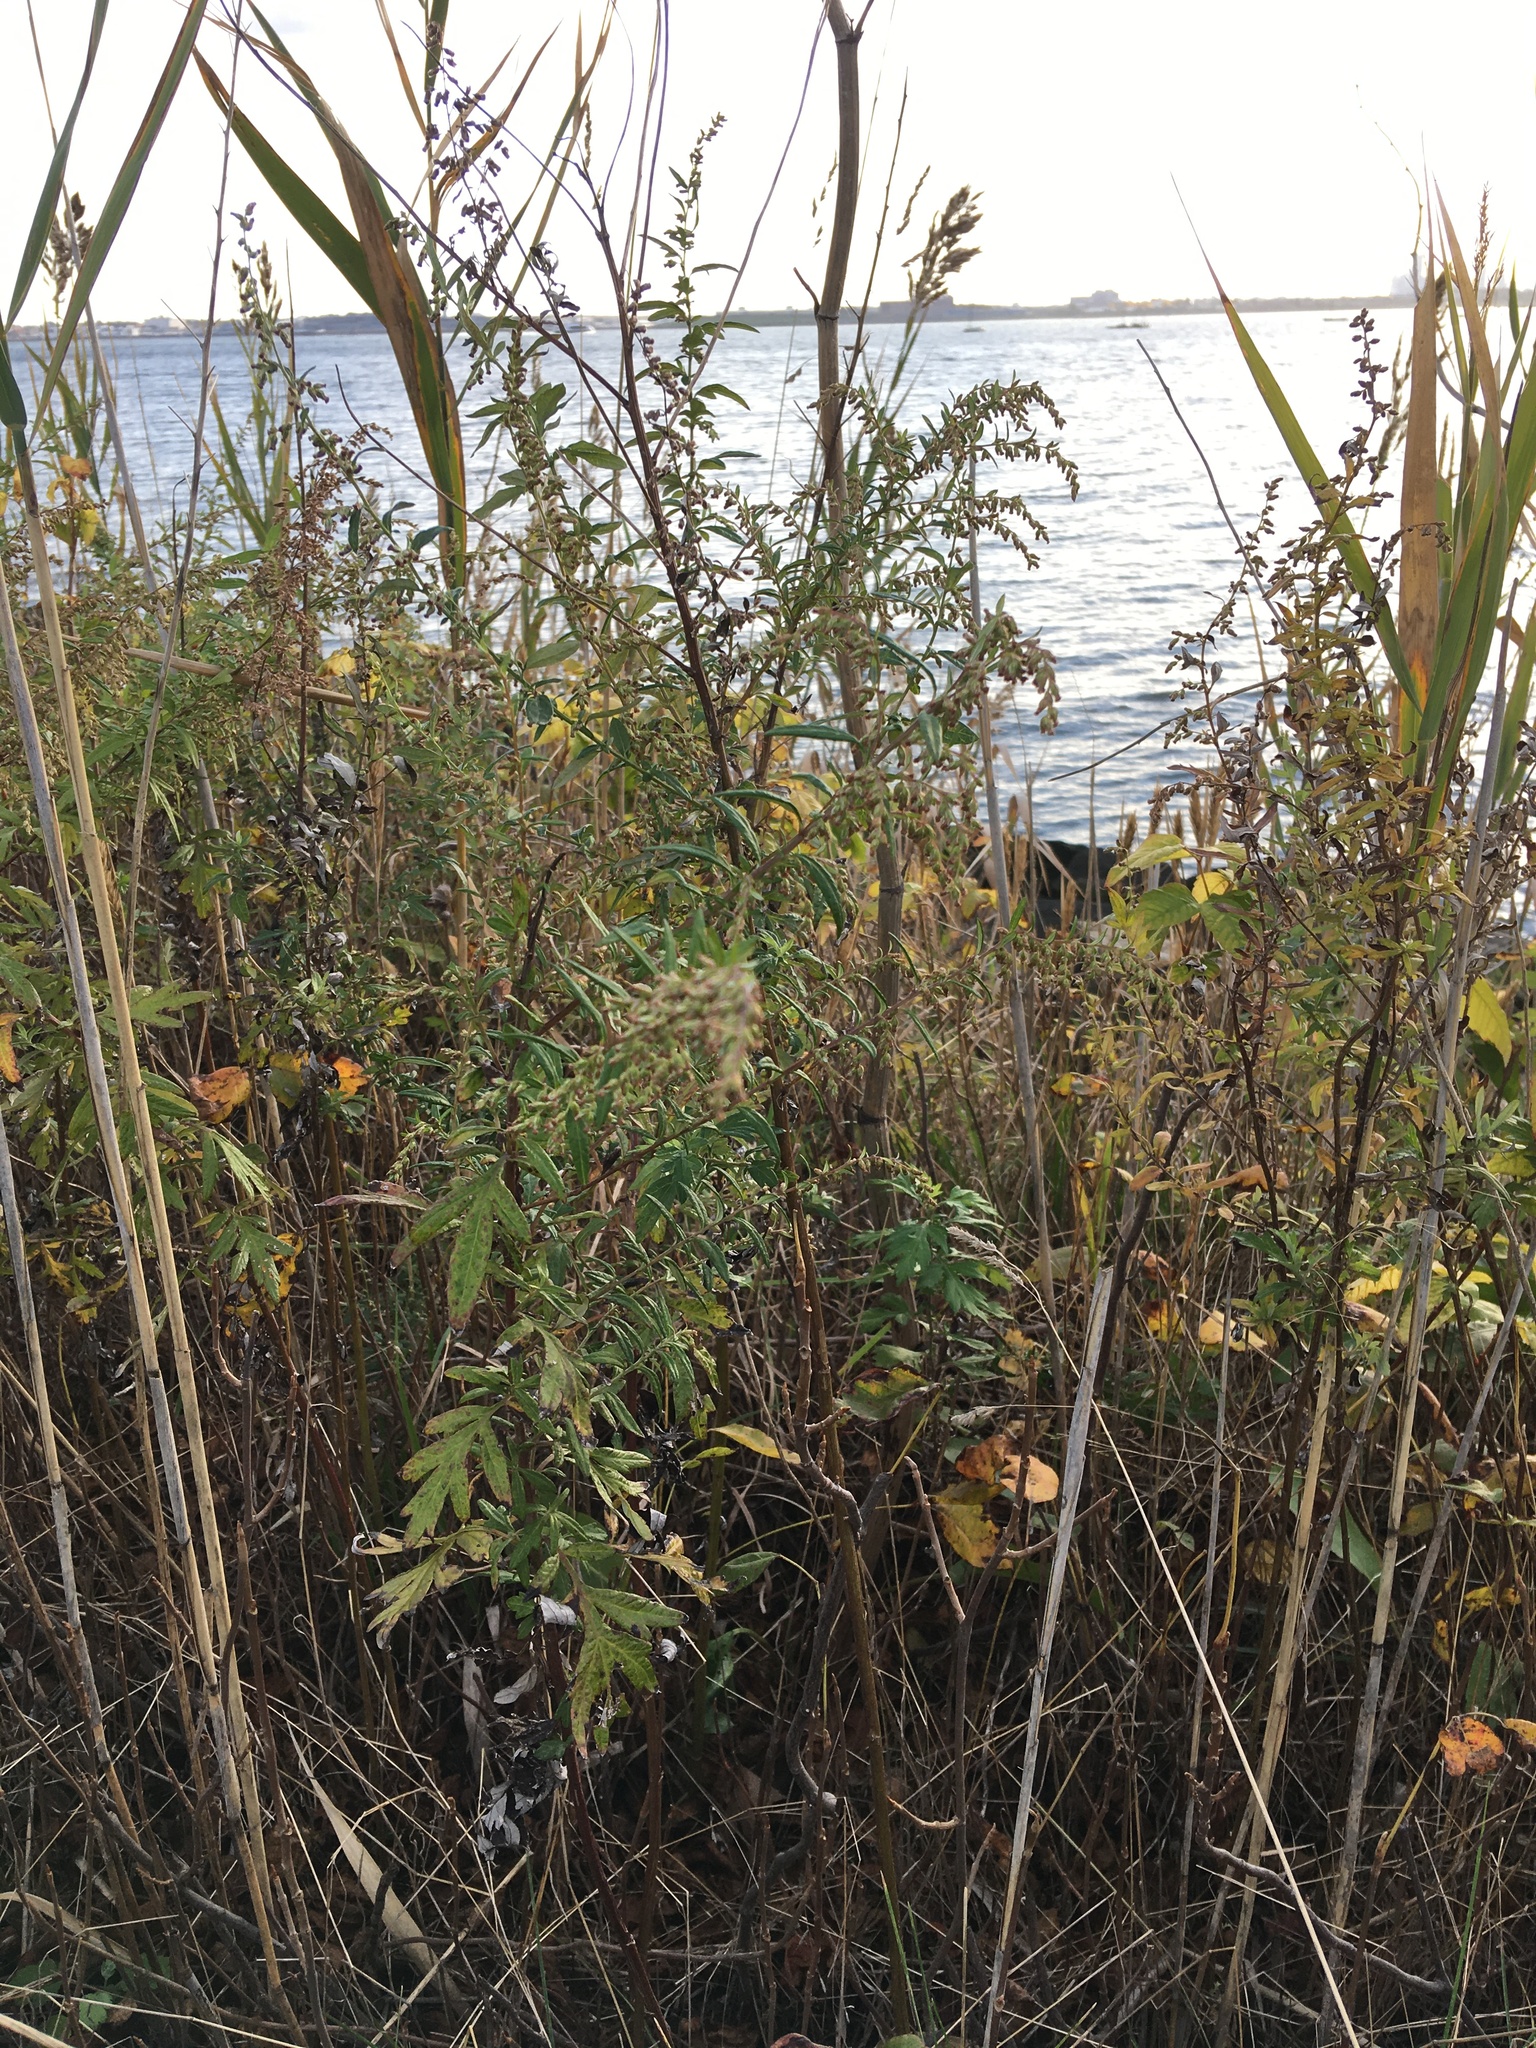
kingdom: Plantae
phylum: Tracheophyta
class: Magnoliopsida
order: Asterales
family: Asteraceae
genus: Artemisia
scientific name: Artemisia vulgaris
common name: Mugwort
